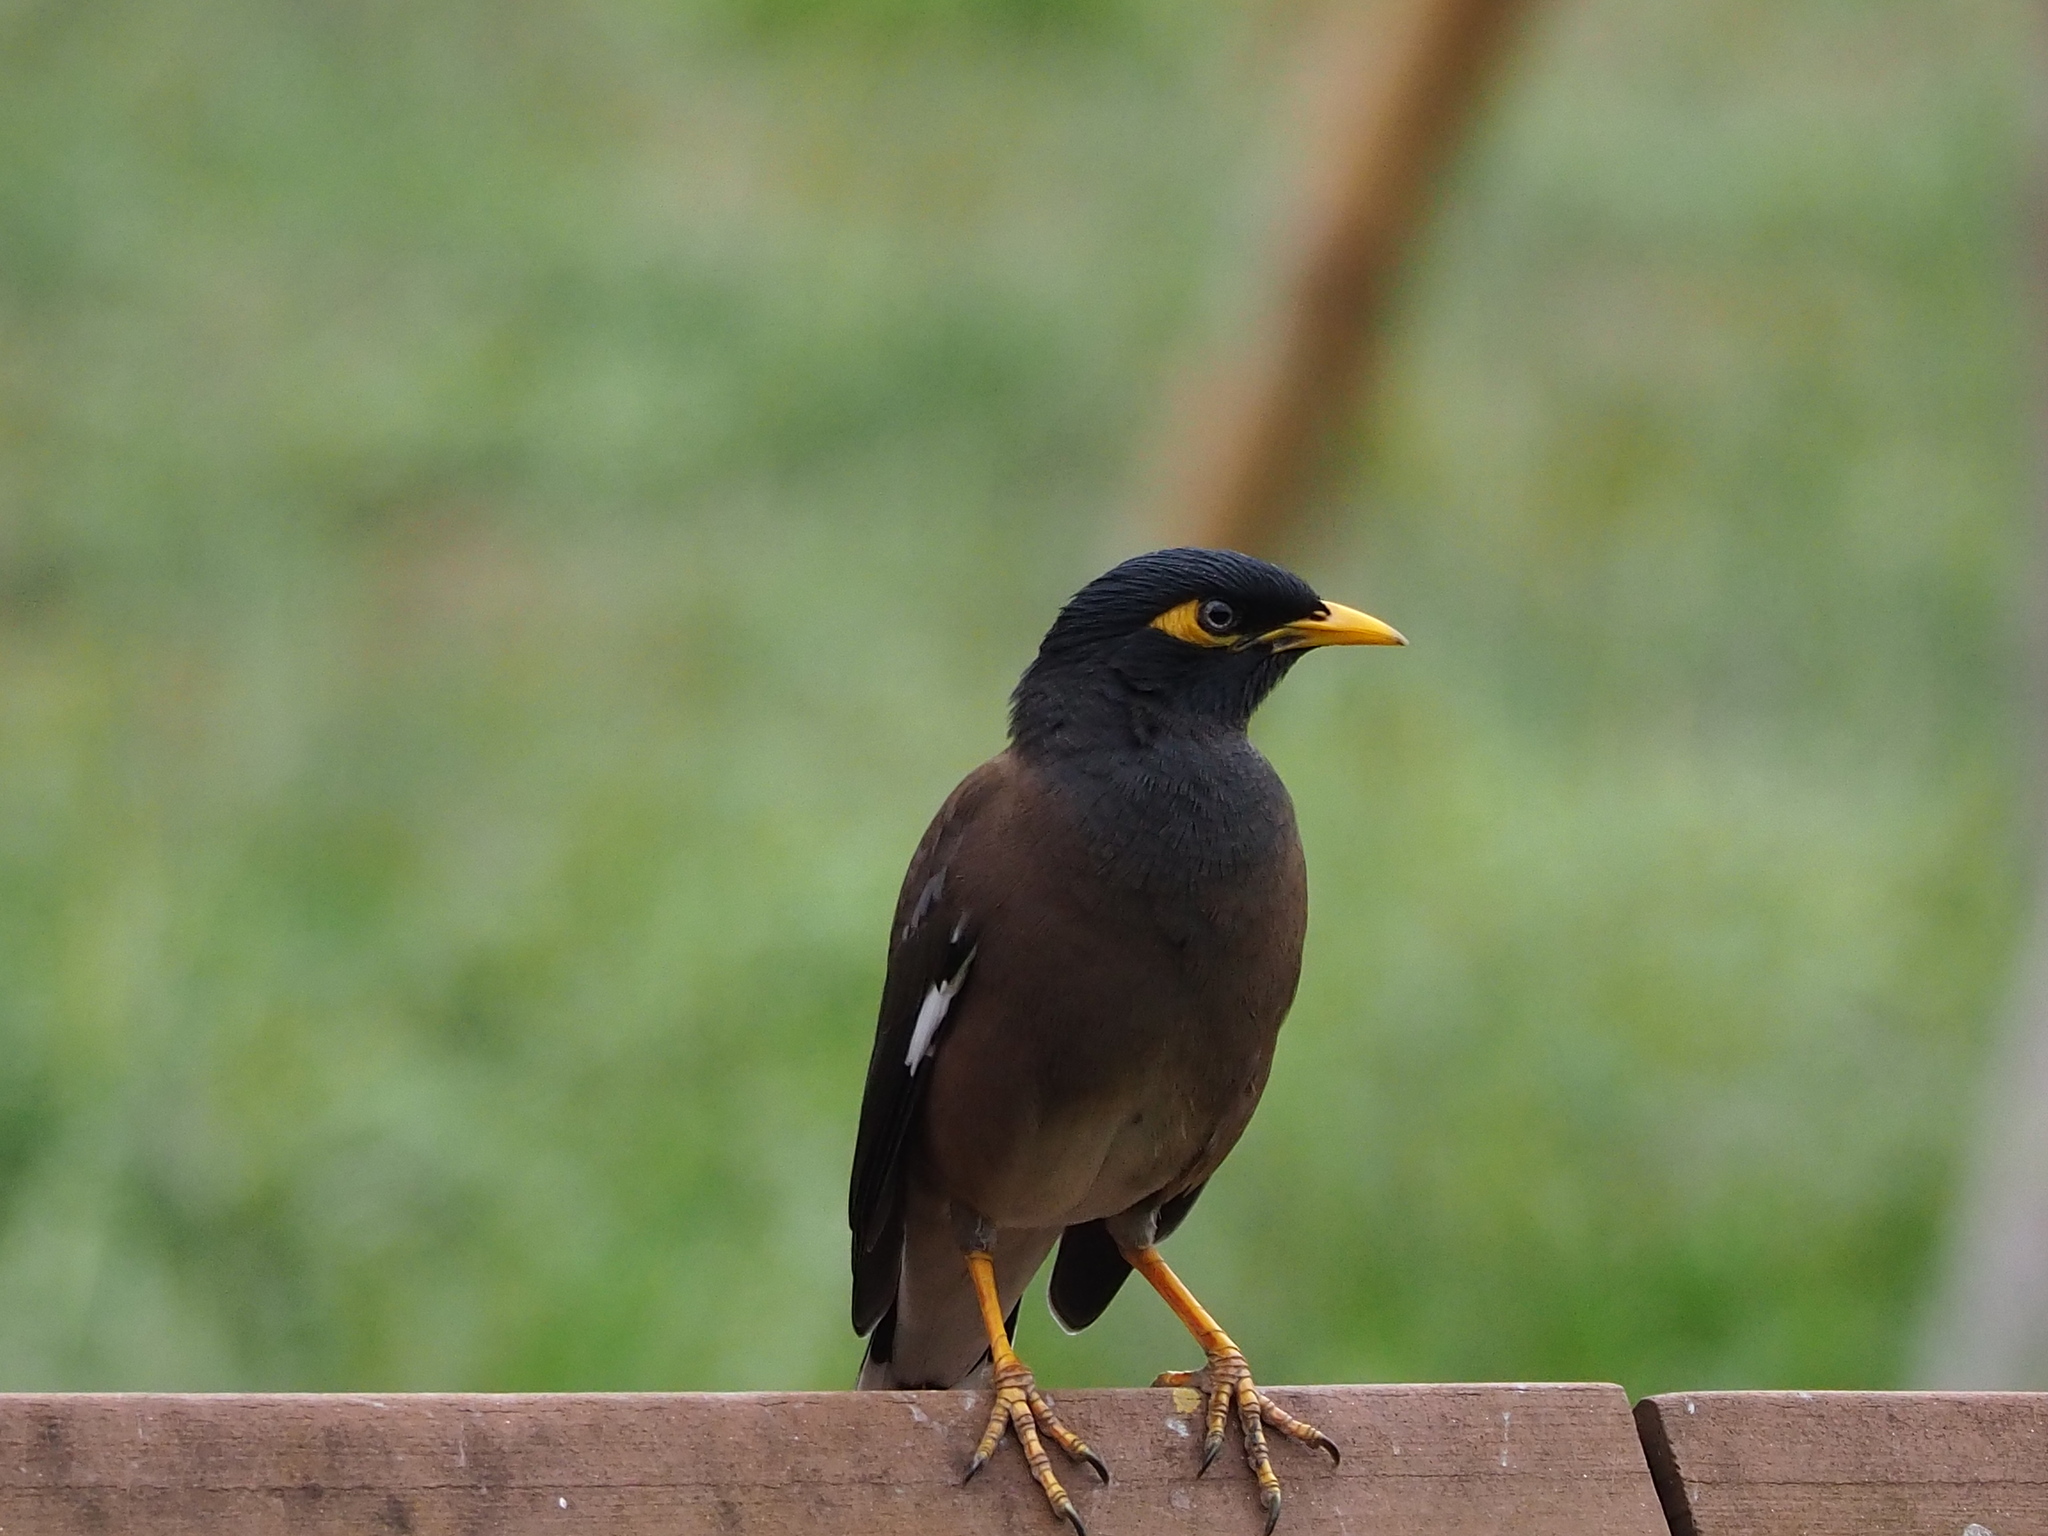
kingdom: Animalia
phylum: Chordata
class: Aves
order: Passeriformes
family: Sturnidae
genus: Acridotheres
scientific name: Acridotheres tristis
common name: Common myna
